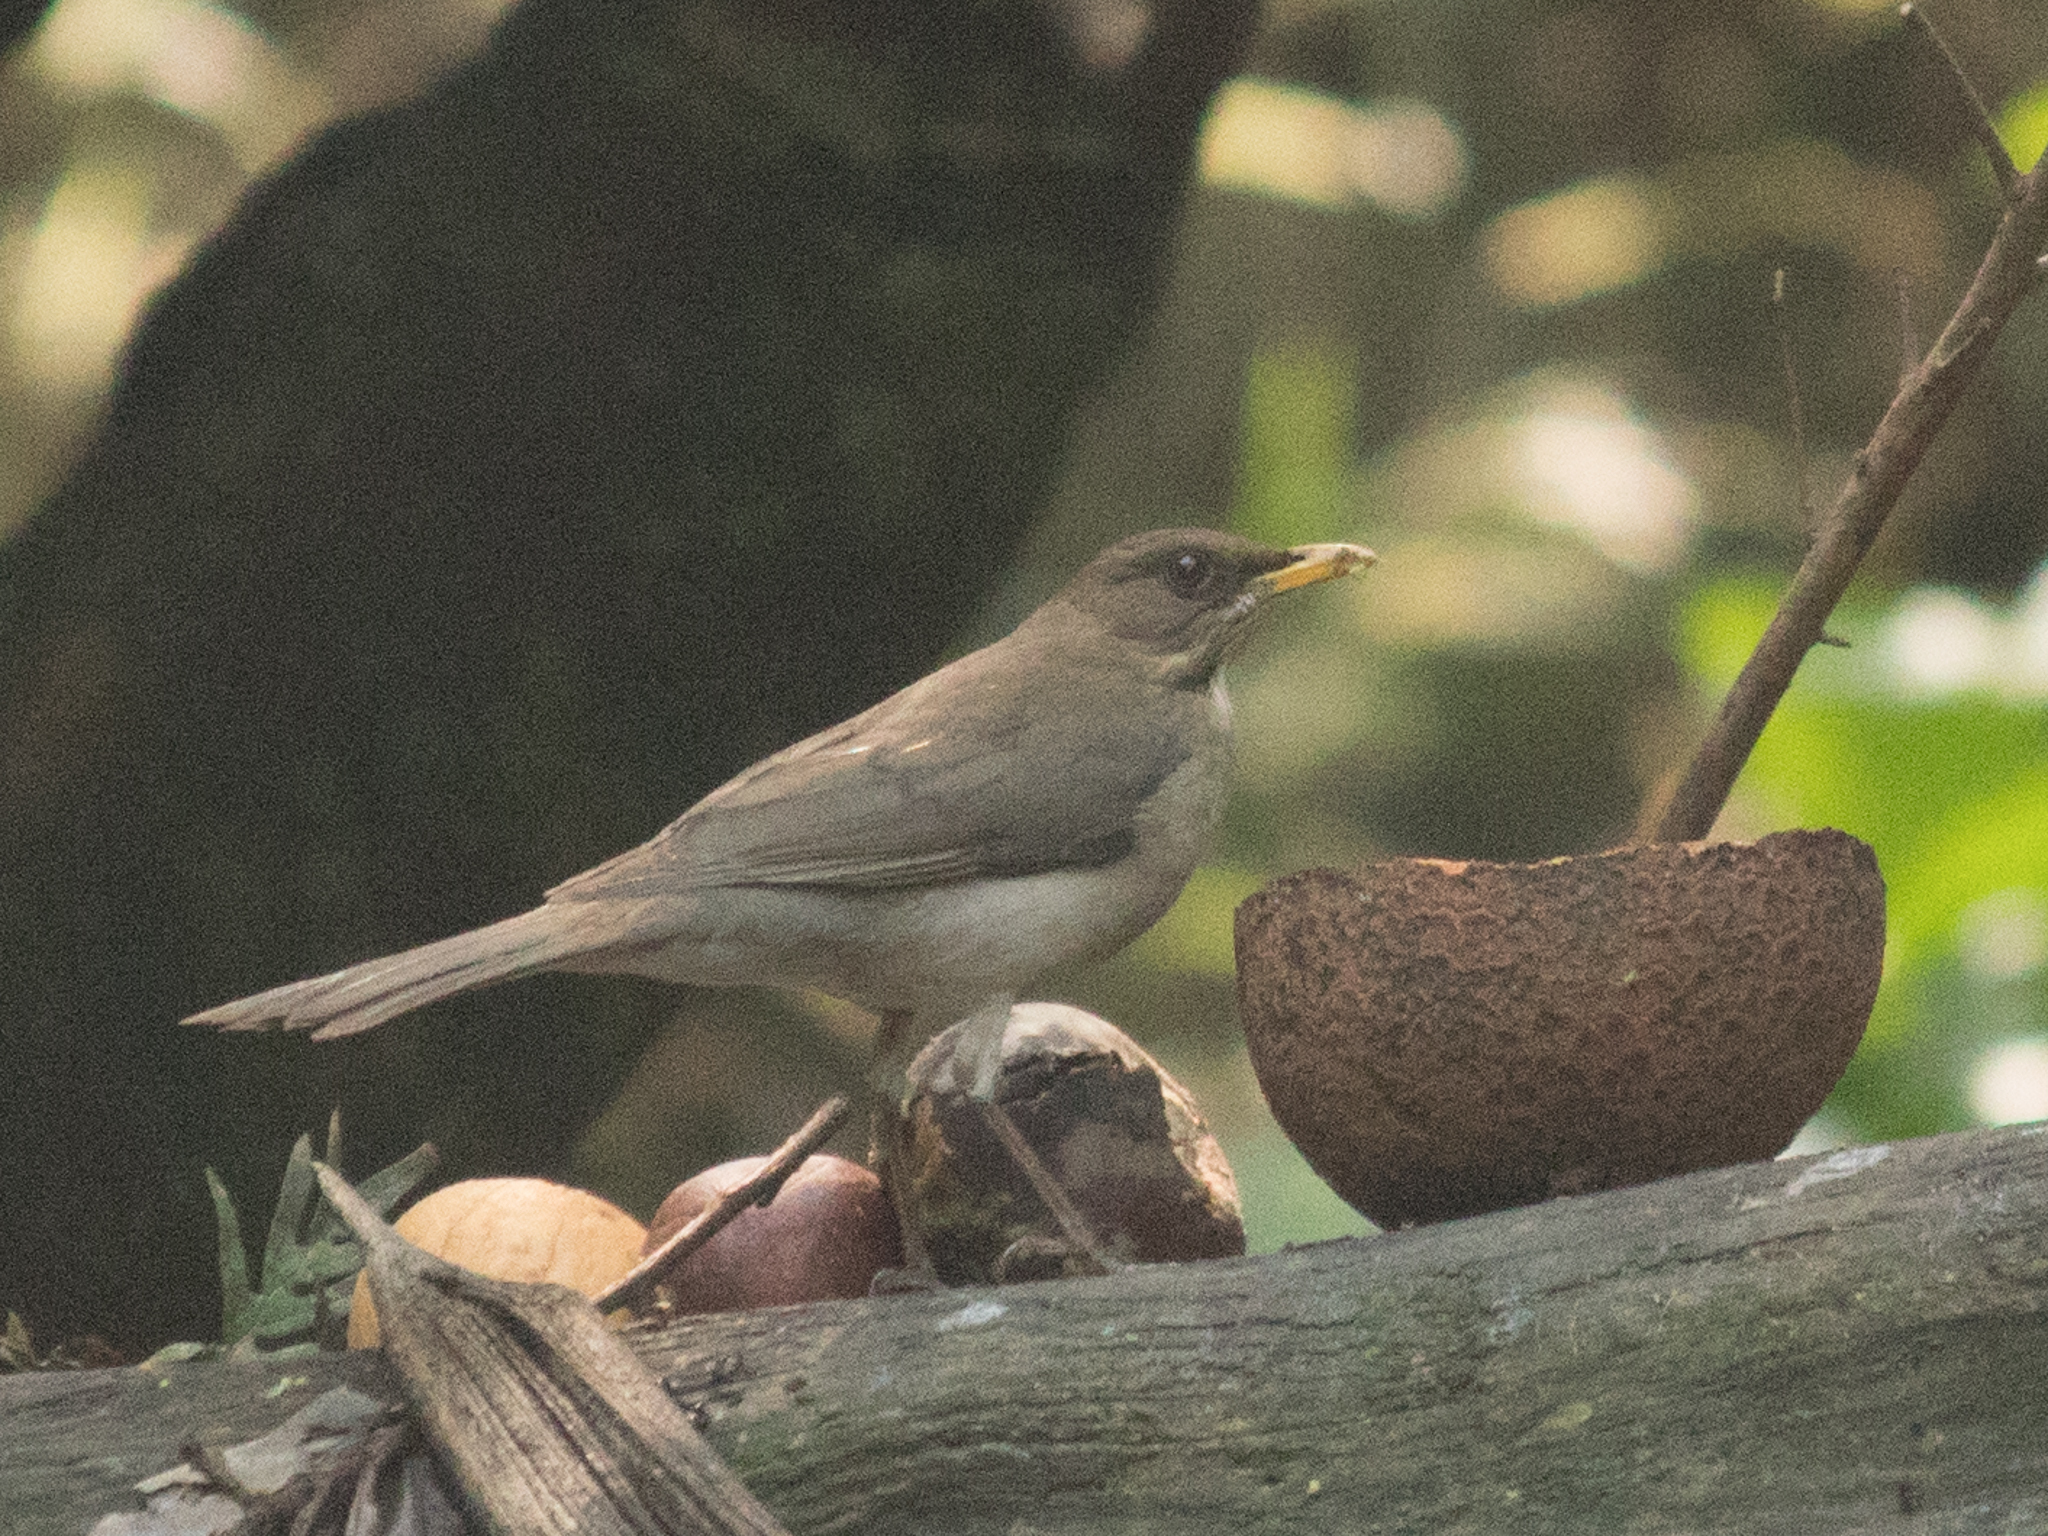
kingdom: Animalia
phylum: Chordata
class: Aves
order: Passeriformes
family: Turdidae
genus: Turdus
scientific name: Turdus amaurochalinus
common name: Creamy-bellied thrush
